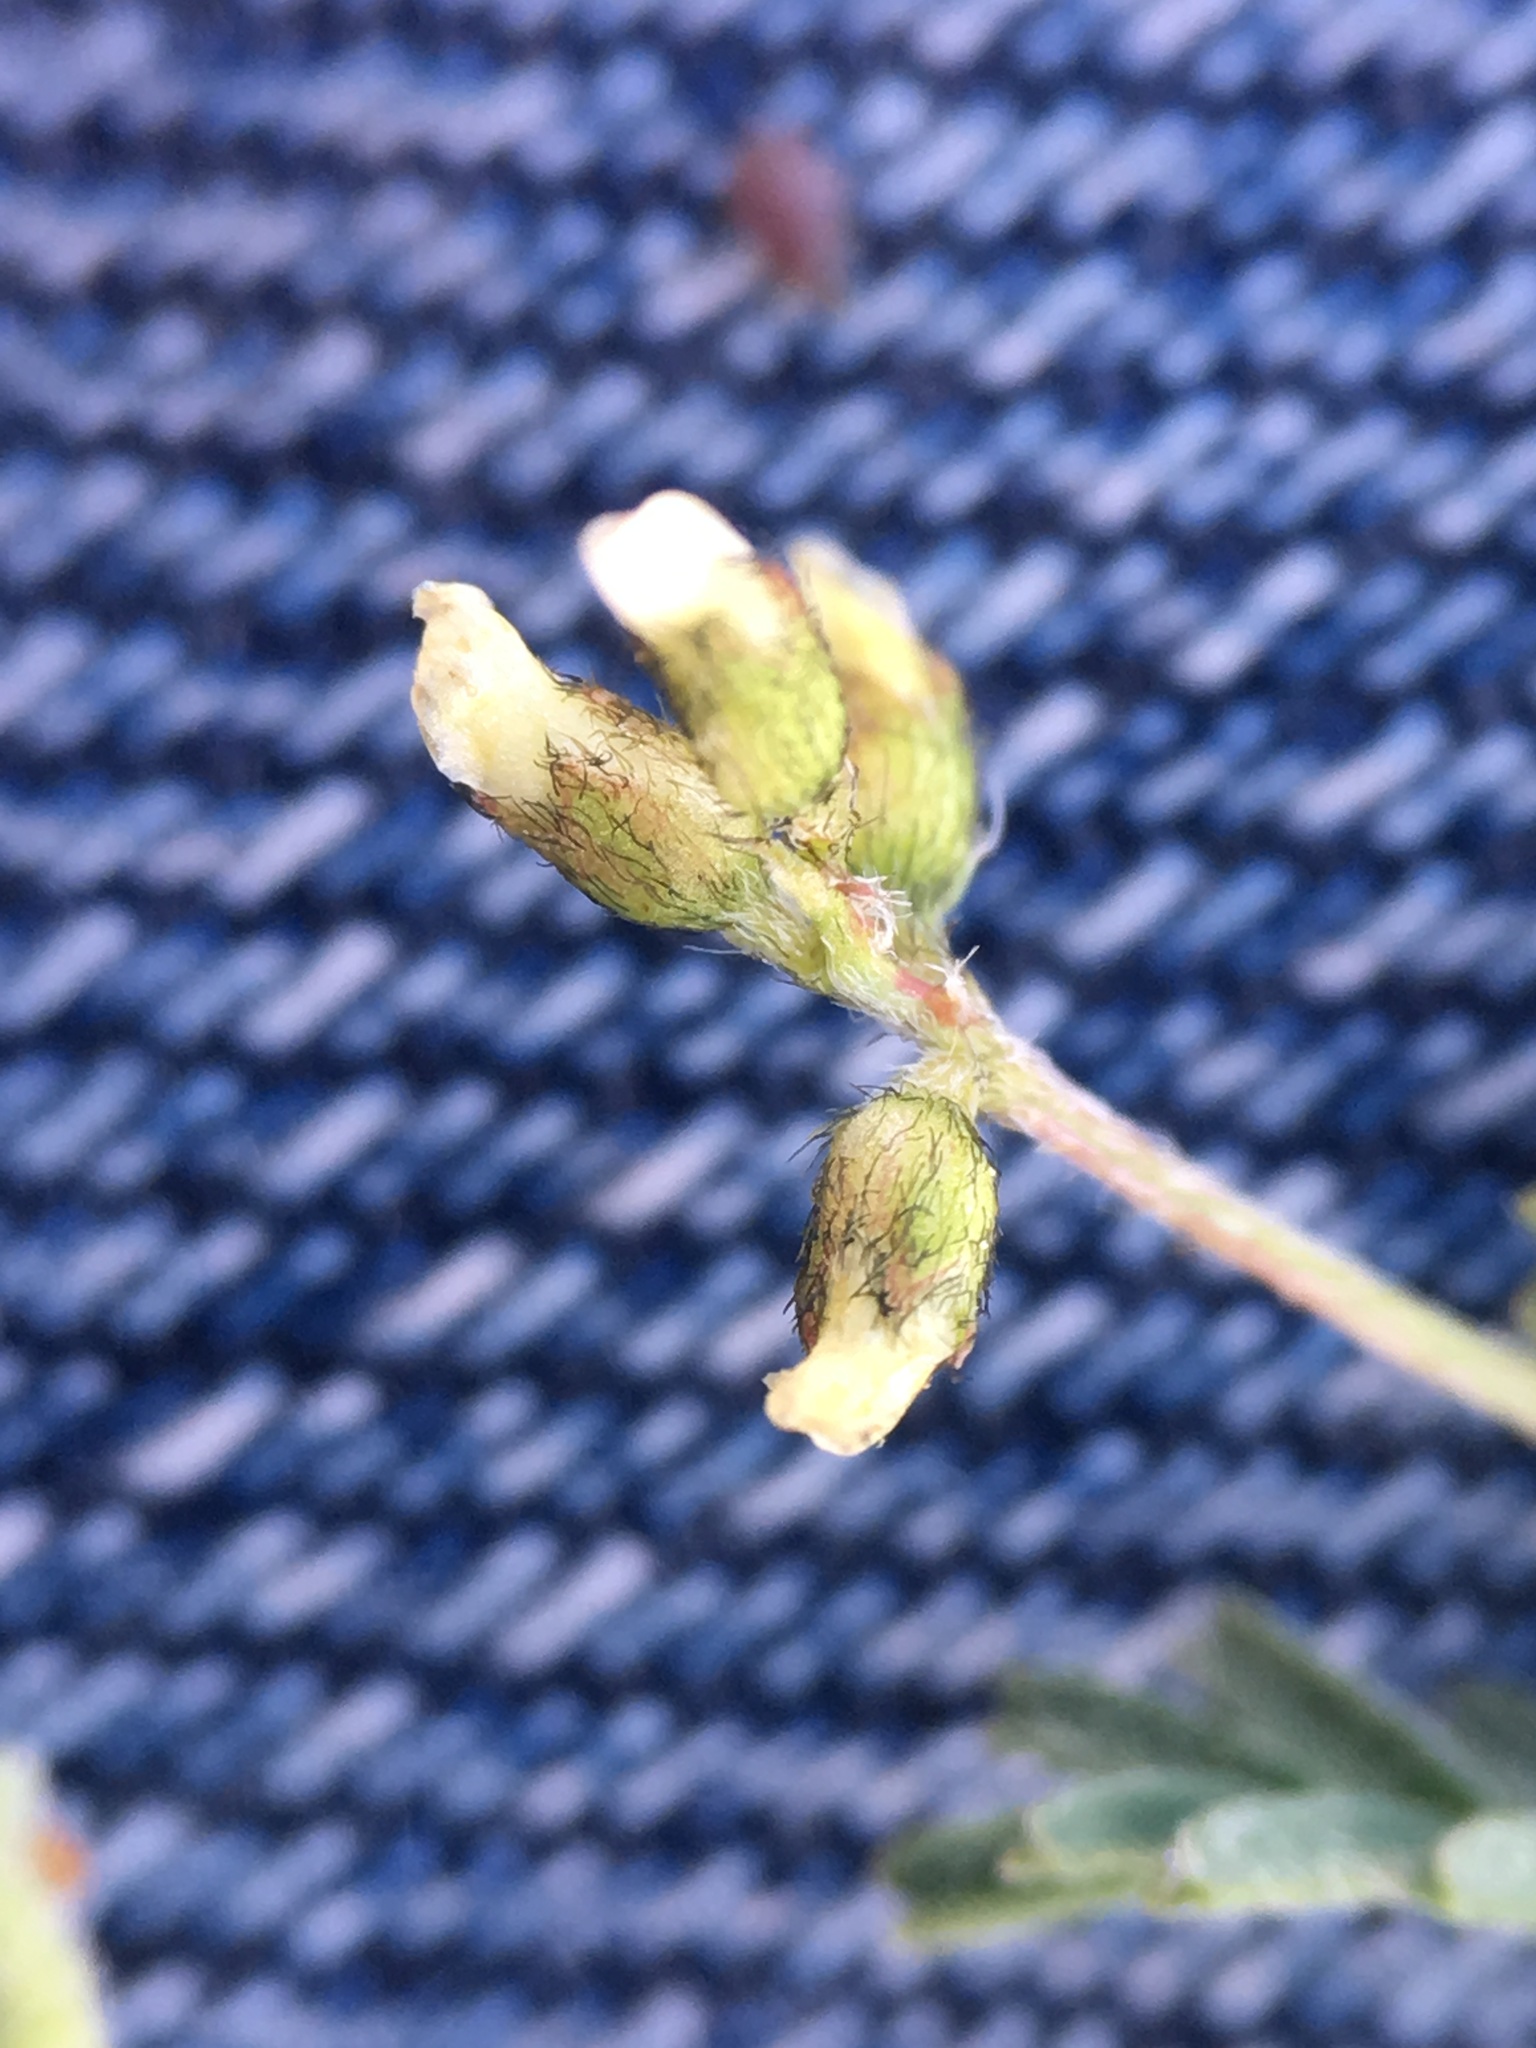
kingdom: Plantae
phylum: Tracheophyta
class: Magnoliopsida
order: Fabales
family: Fabaceae
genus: Astragalus
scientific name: Astragalus gambelianus
